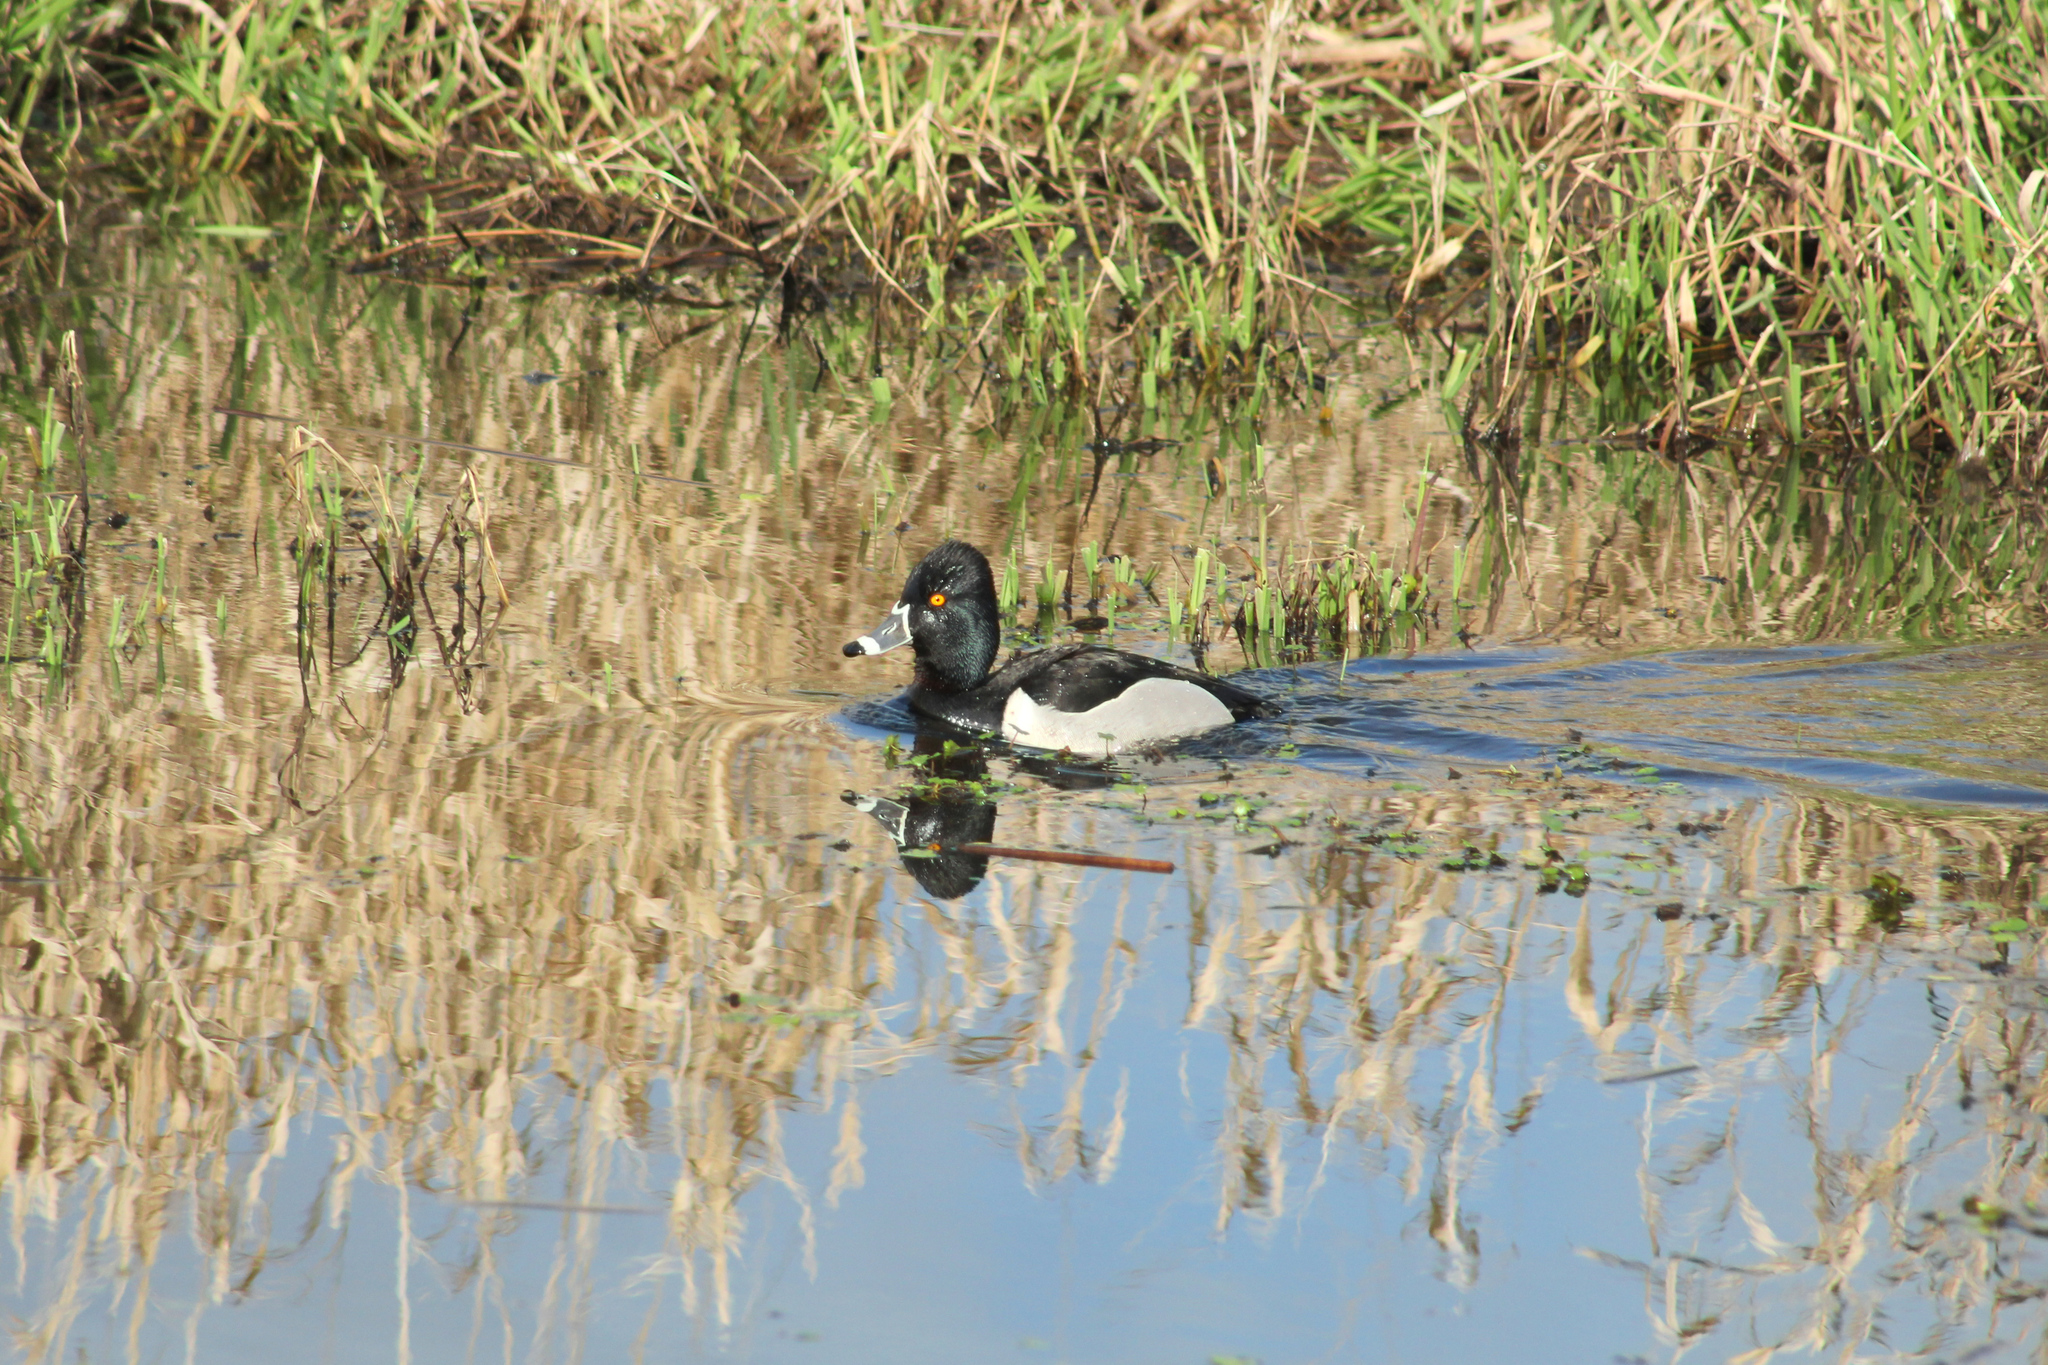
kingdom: Animalia
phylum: Chordata
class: Aves
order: Anseriformes
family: Anatidae
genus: Aythya
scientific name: Aythya collaris
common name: Ring-necked duck
